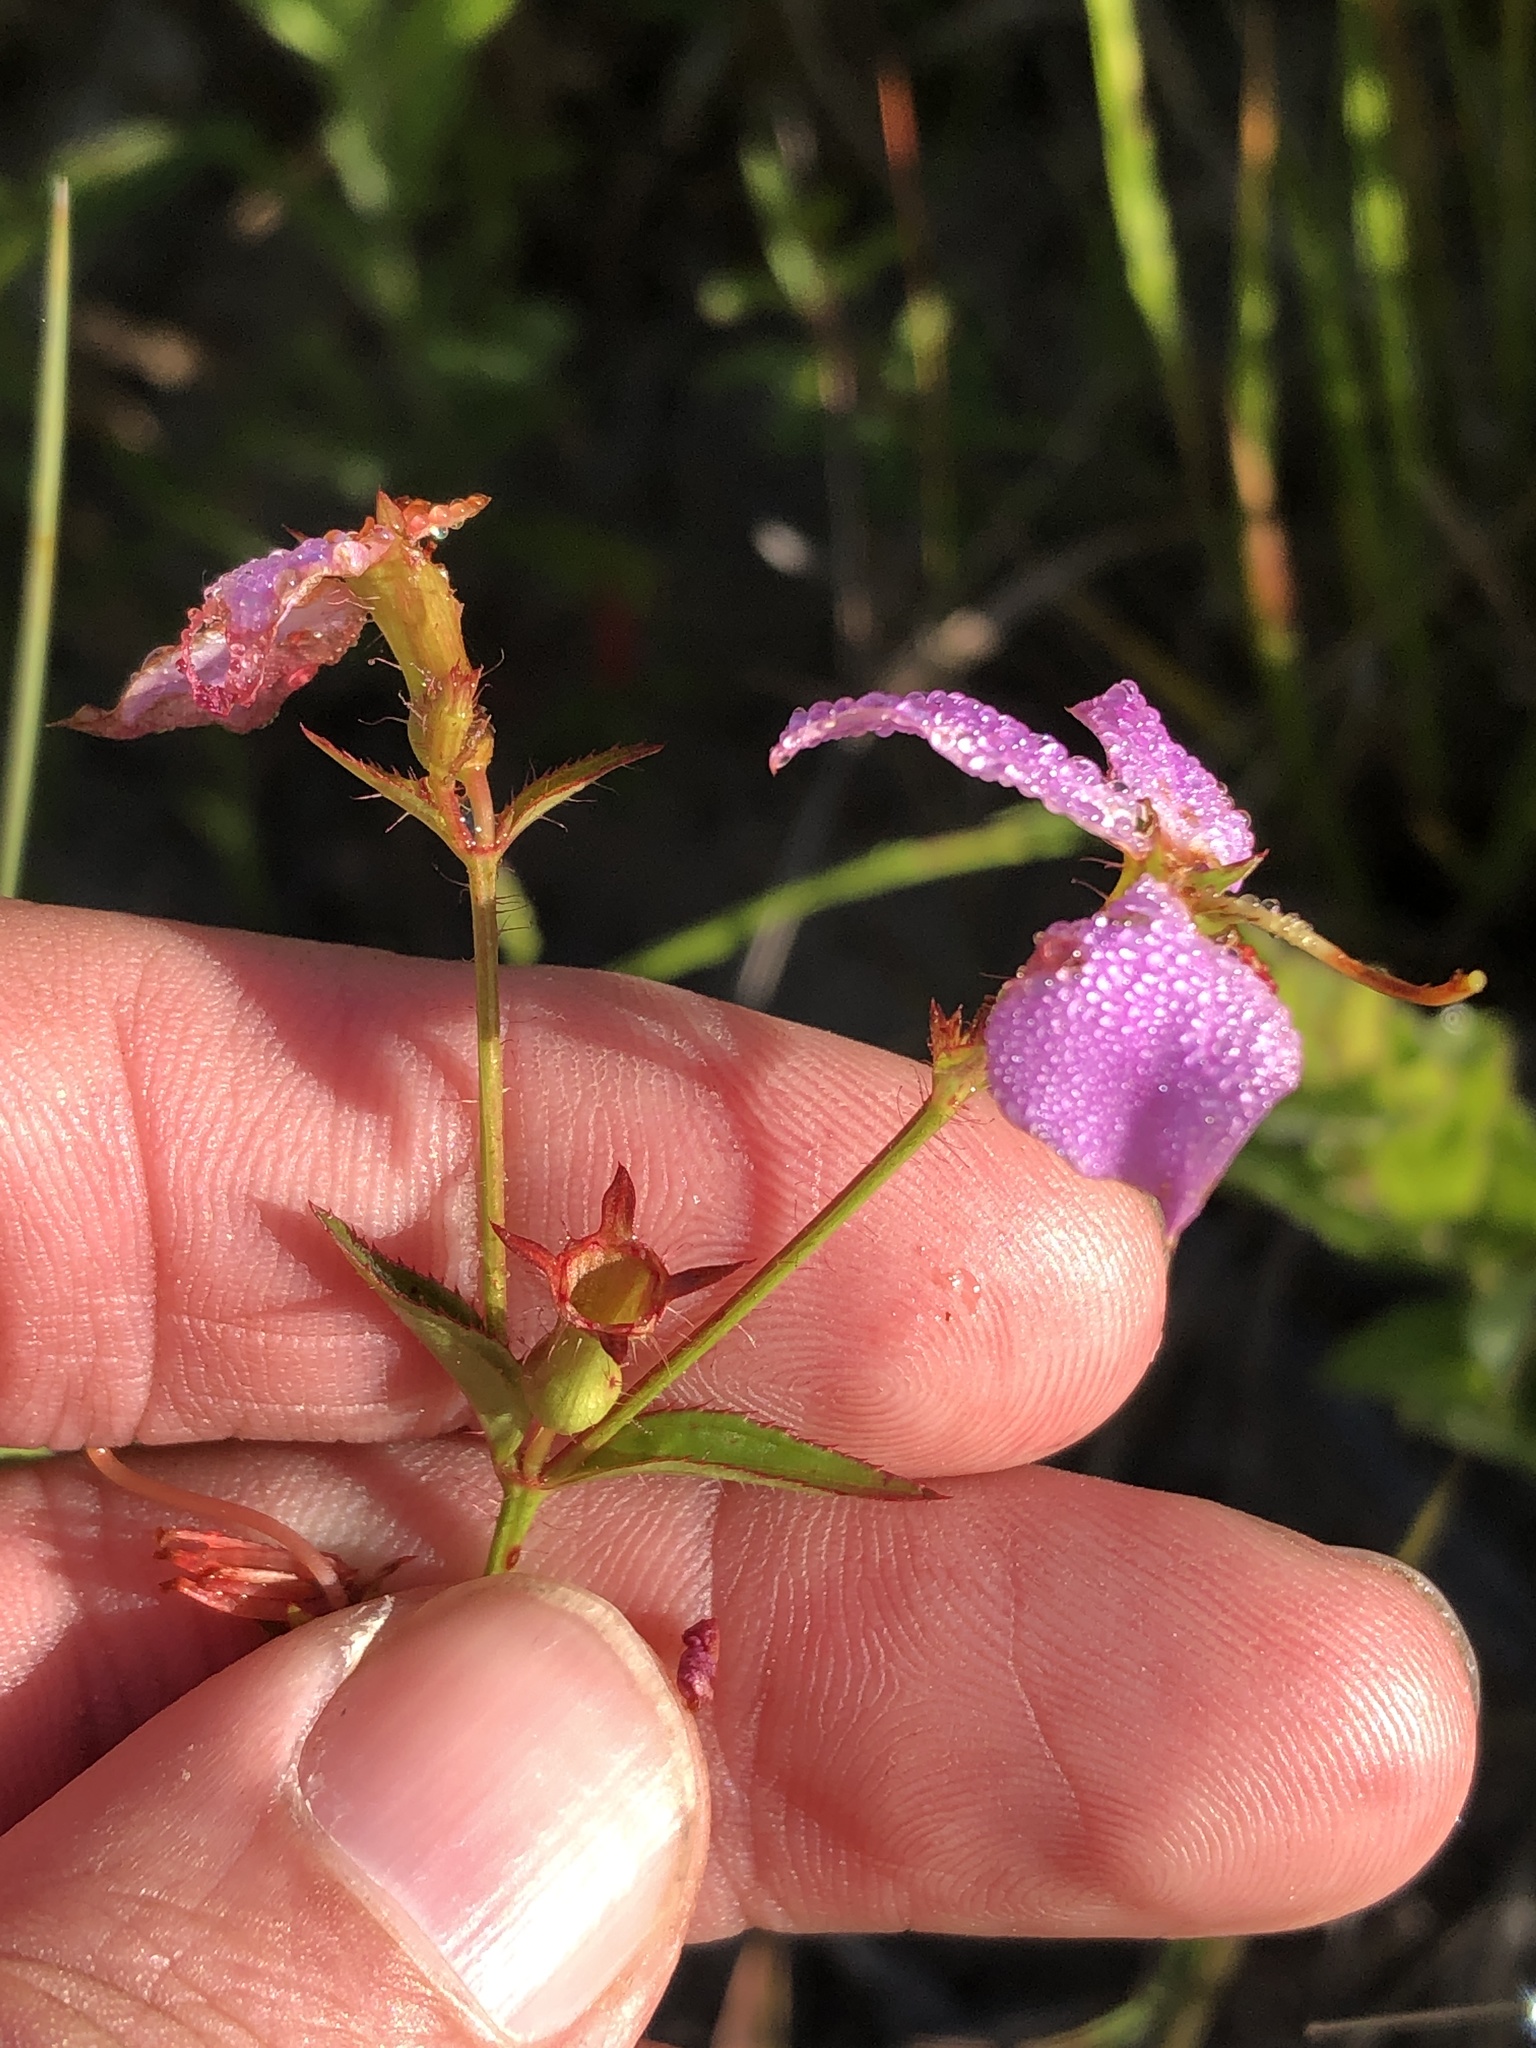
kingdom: Plantae
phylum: Tracheophyta
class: Magnoliopsida
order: Myrtales
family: Melastomataceae
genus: Rhexia
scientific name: Rhexia mariana
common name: Dull meadow-pitcher
